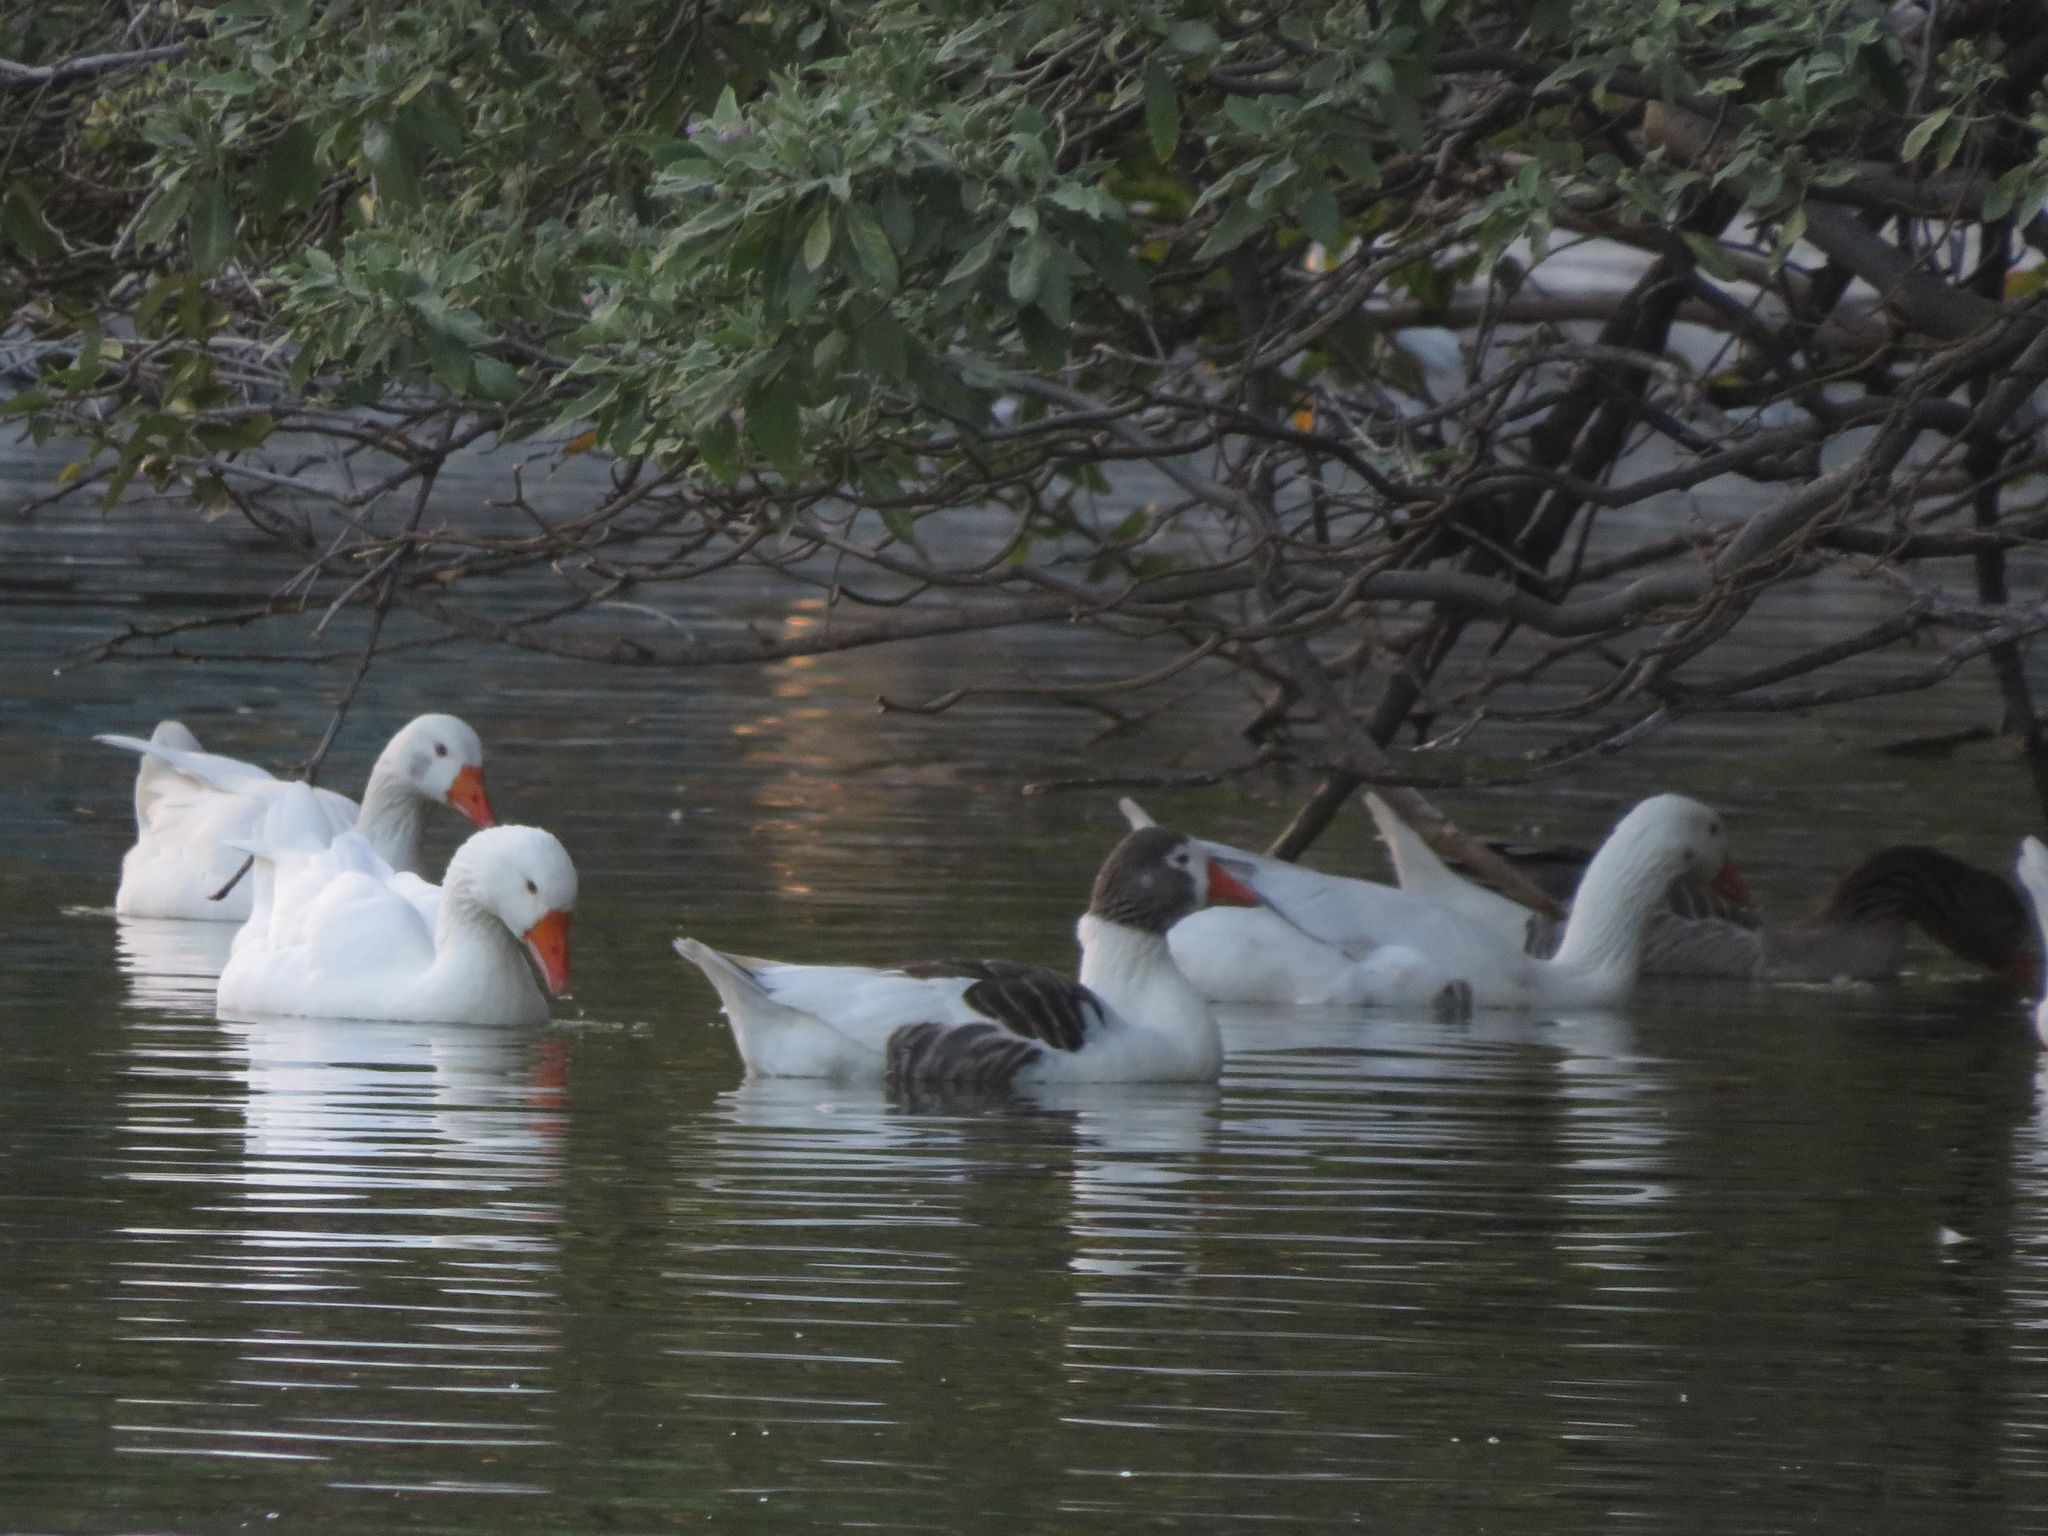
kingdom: Animalia
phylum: Chordata
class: Aves
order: Anseriformes
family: Anatidae
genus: Anser
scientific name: Anser anser
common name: Greylag goose
